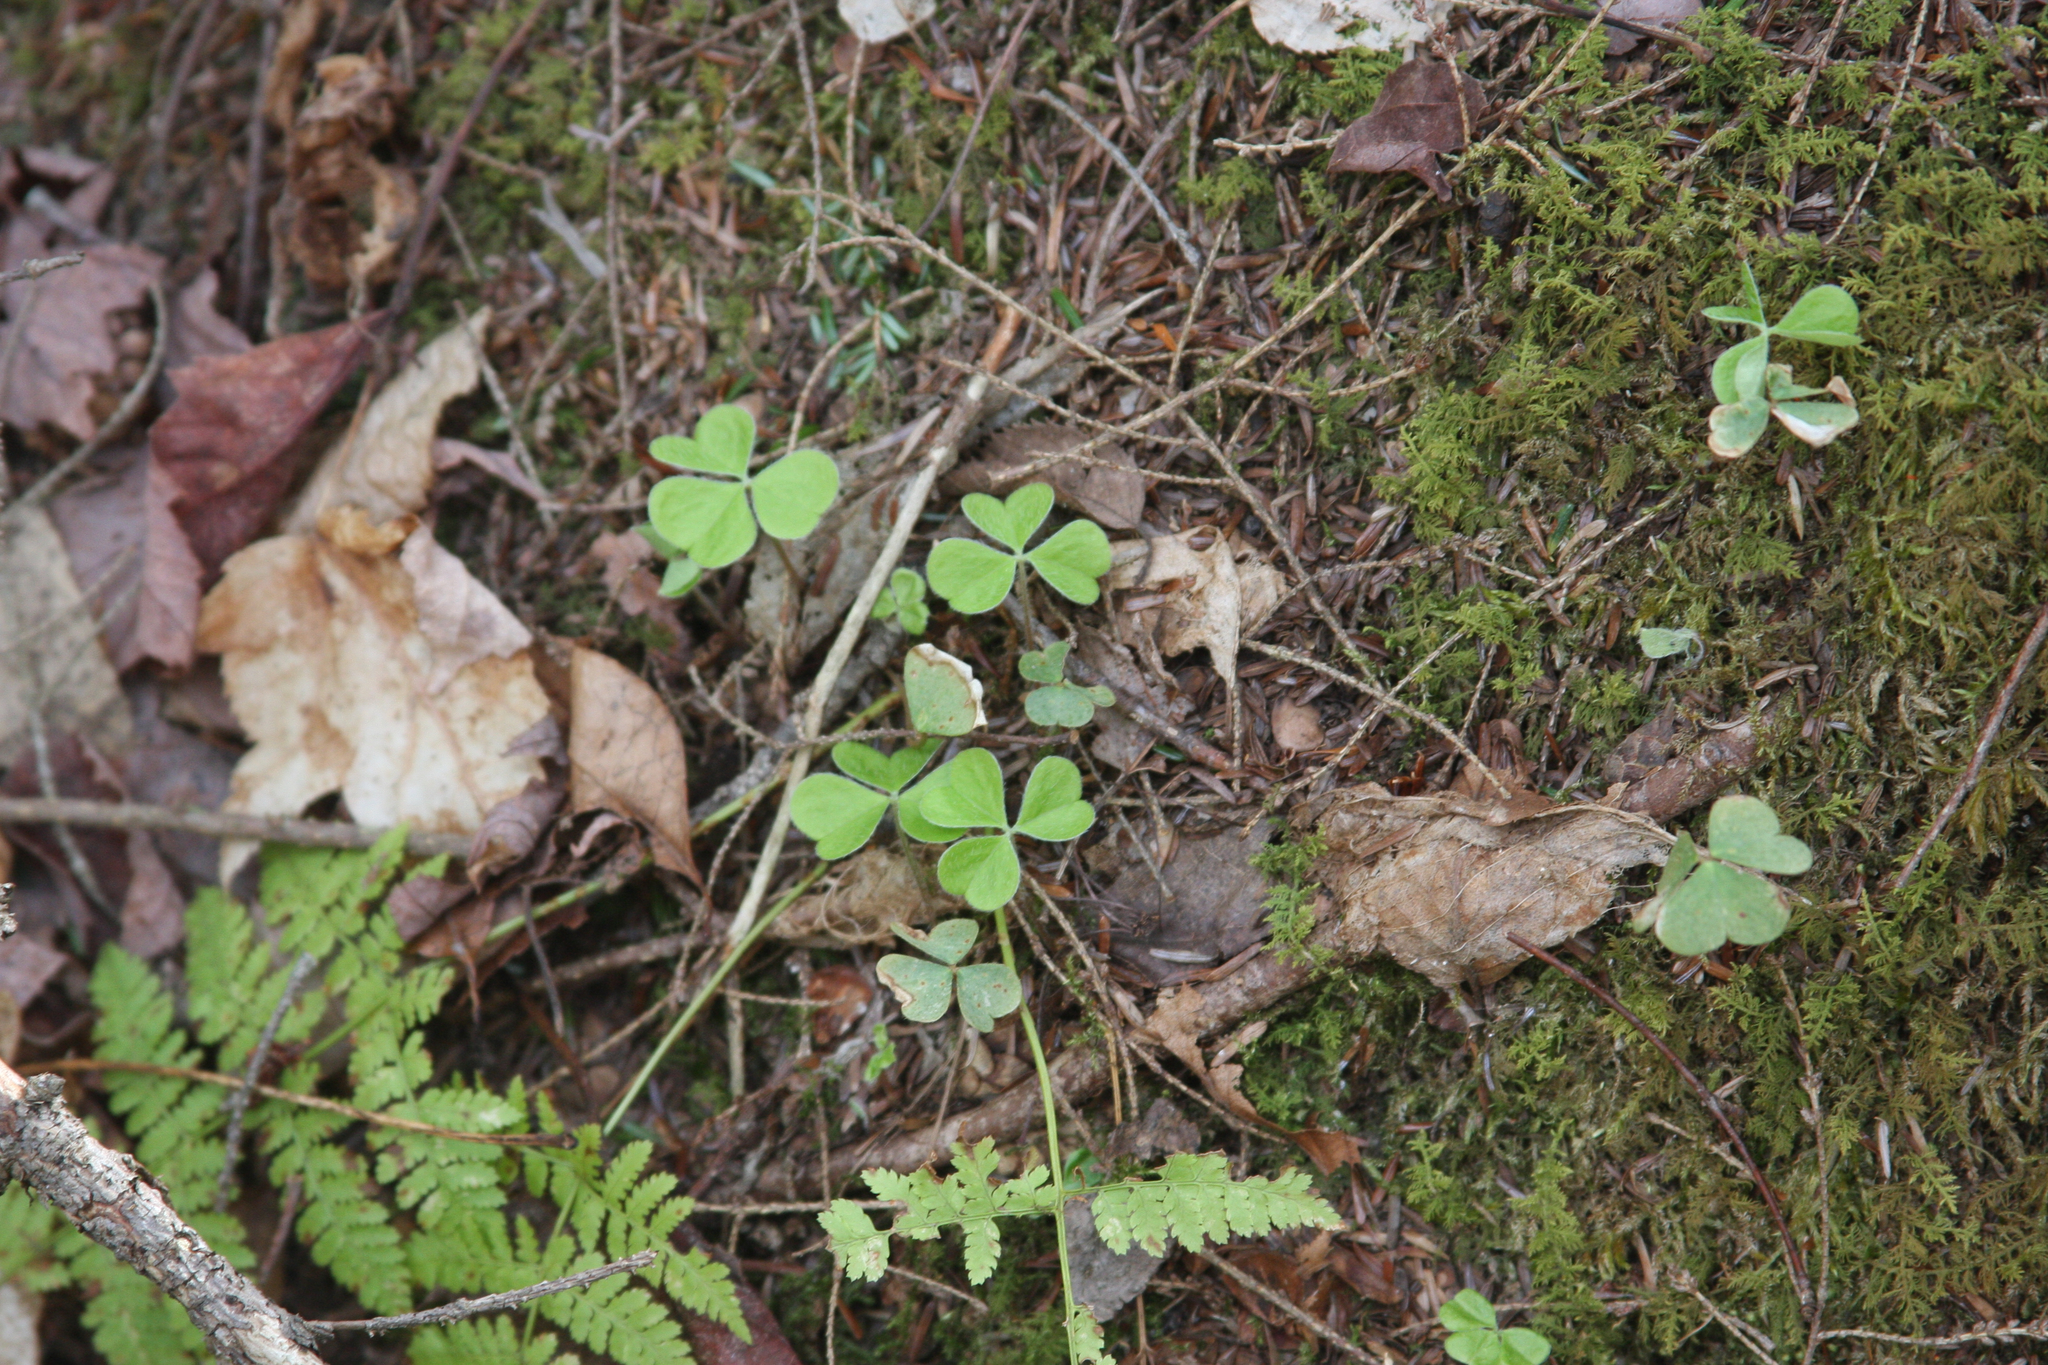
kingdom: Plantae
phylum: Tracheophyta
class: Magnoliopsida
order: Oxalidales
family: Oxalidaceae
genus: Oxalis
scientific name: Oxalis montana
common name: American wood-sorrel
